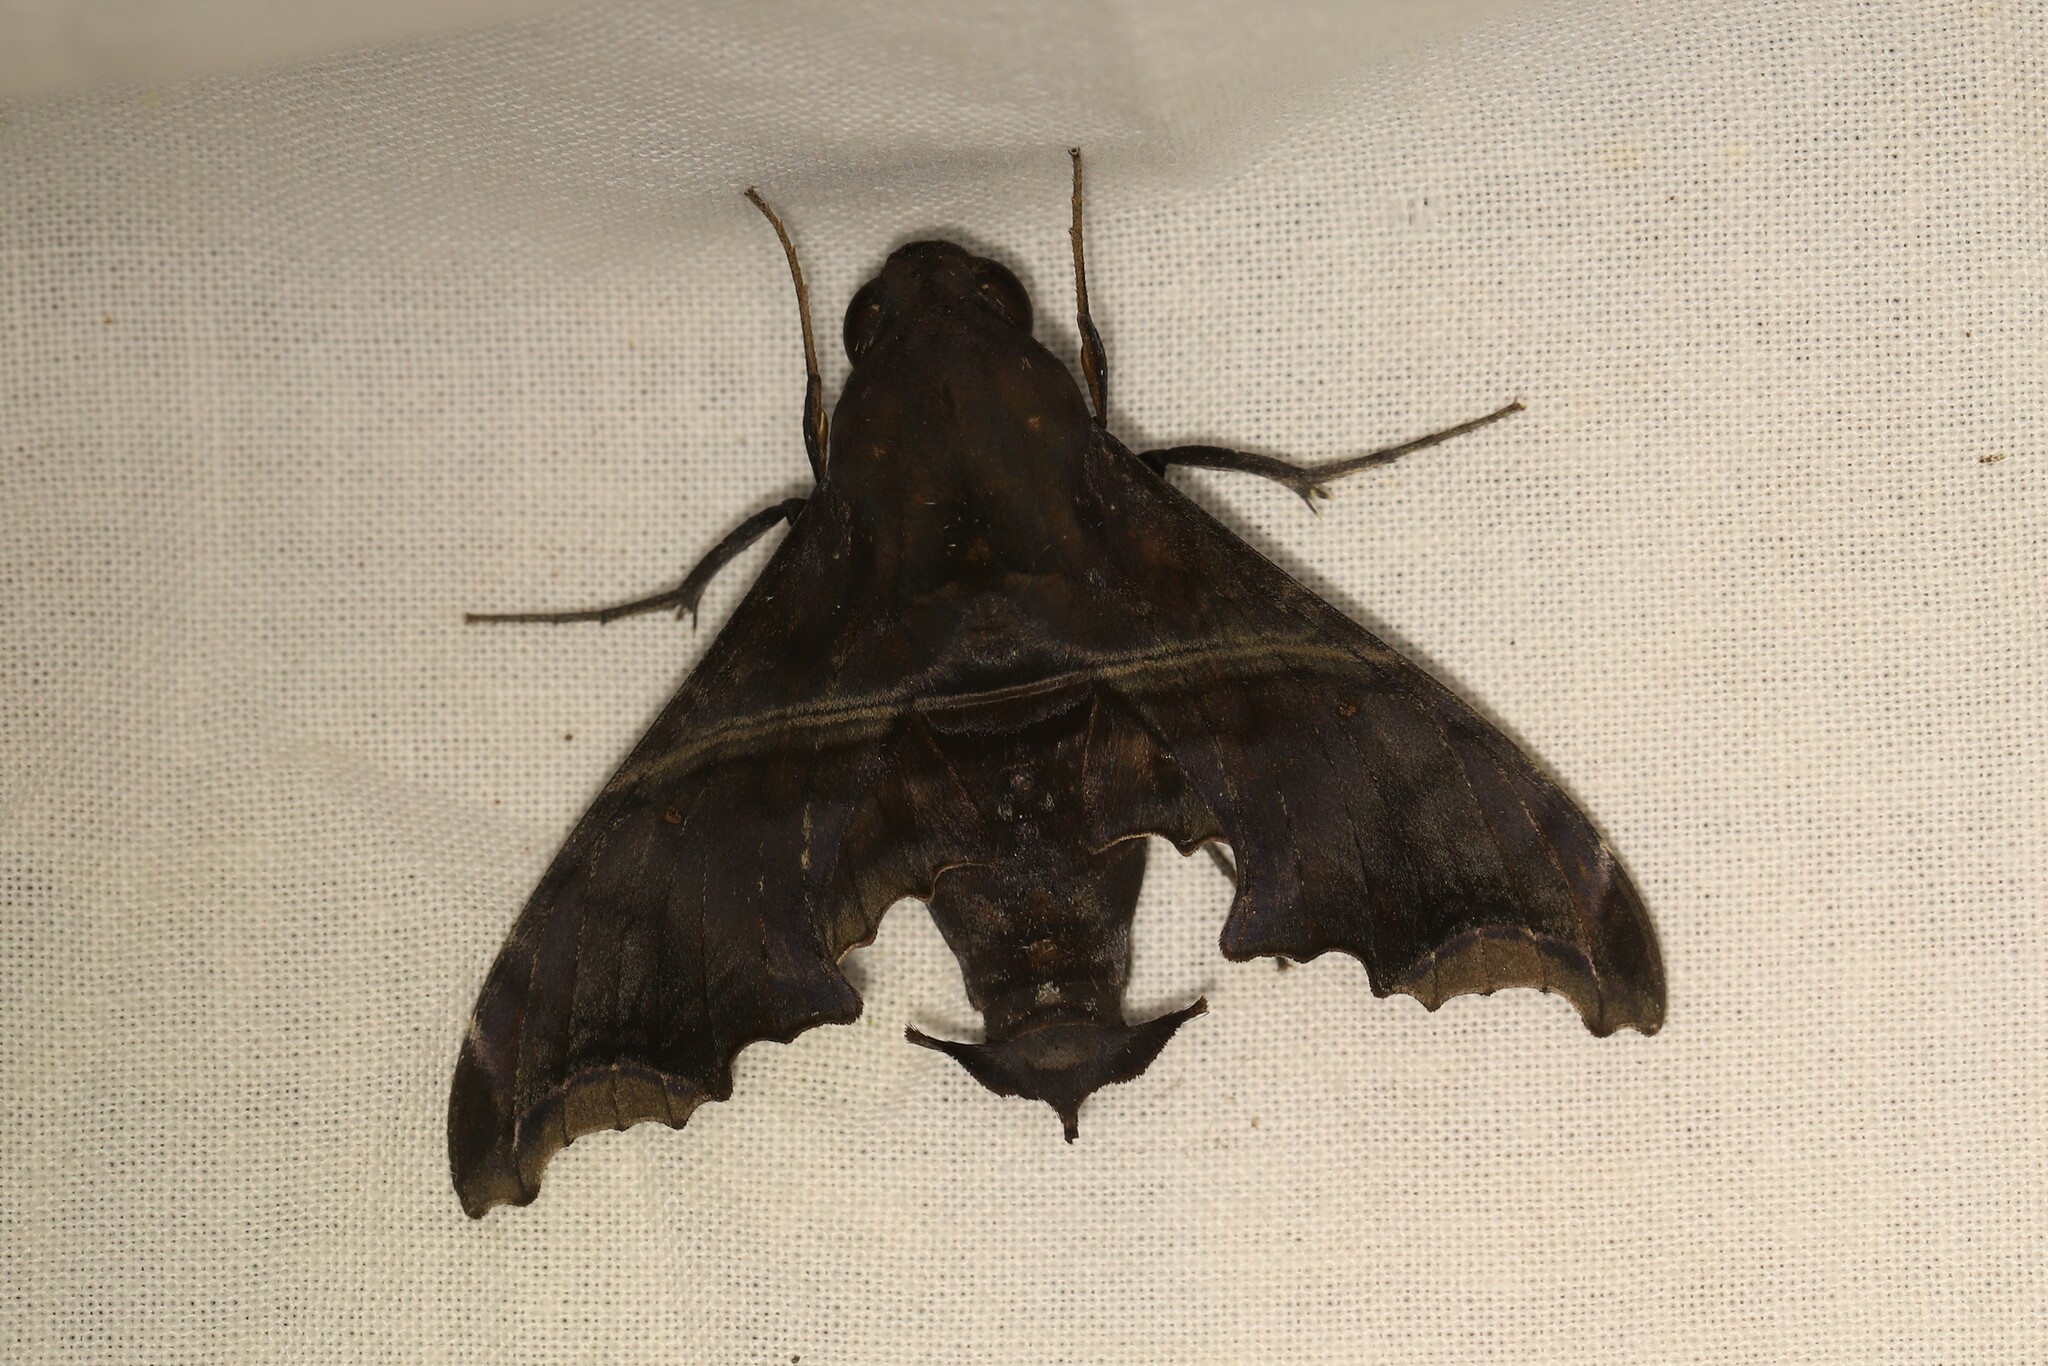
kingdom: Animalia
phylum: Arthropoda
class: Insecta
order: Lepidoptera
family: Sphingidae
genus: Enyo
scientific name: Enyo ocypete
